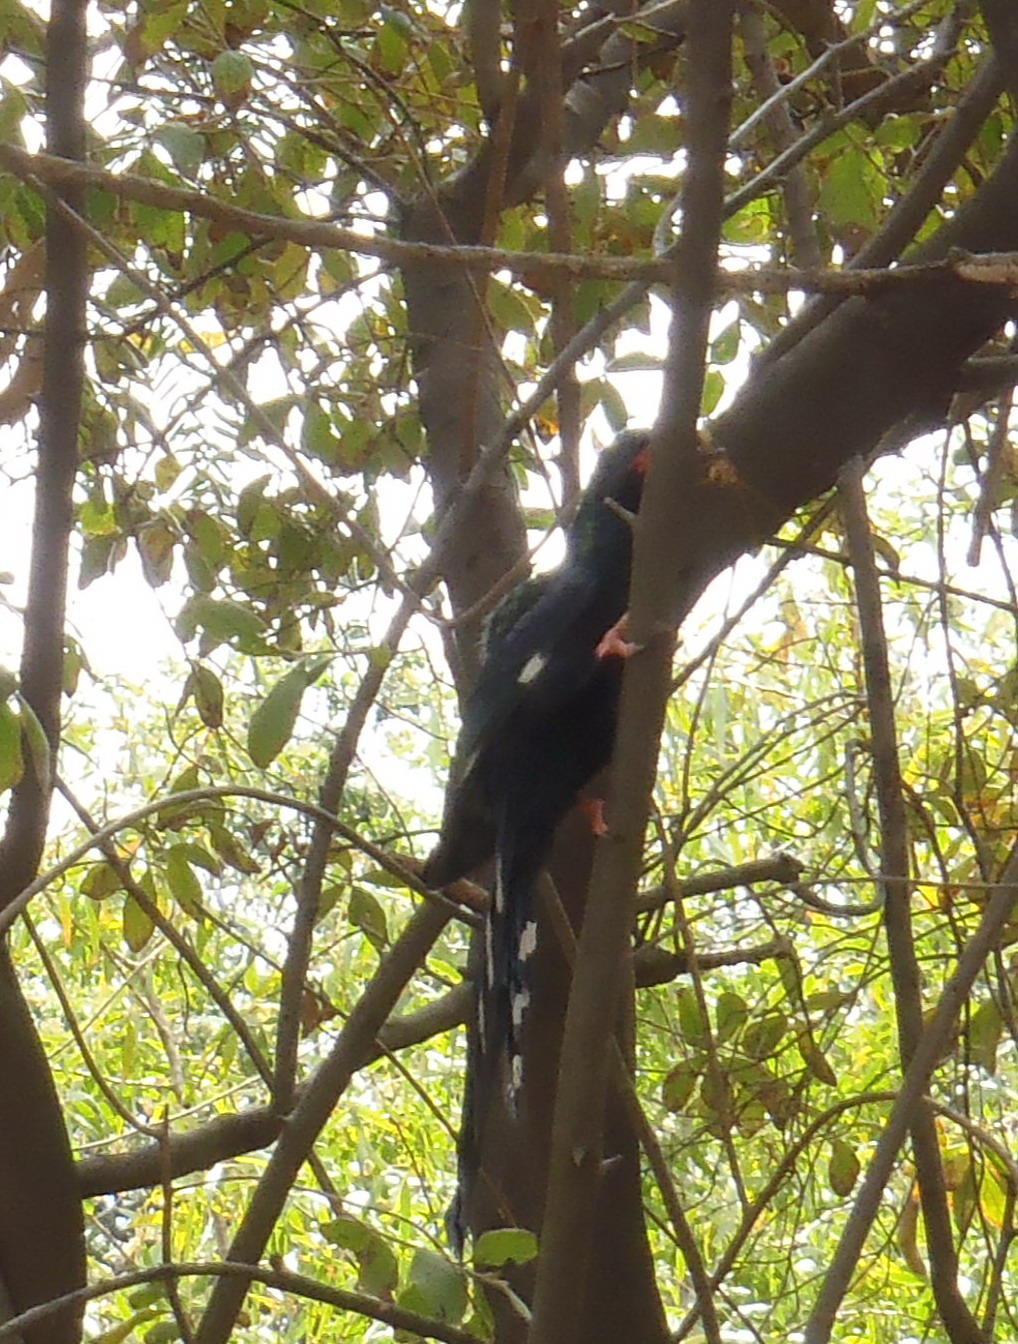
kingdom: Animalia
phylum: Chordata
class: Aves
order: Bucerotiformes
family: Phoeniculidae
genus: Phoeniculus
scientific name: Phoeniculus purpureus
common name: Green woodhoopoe
